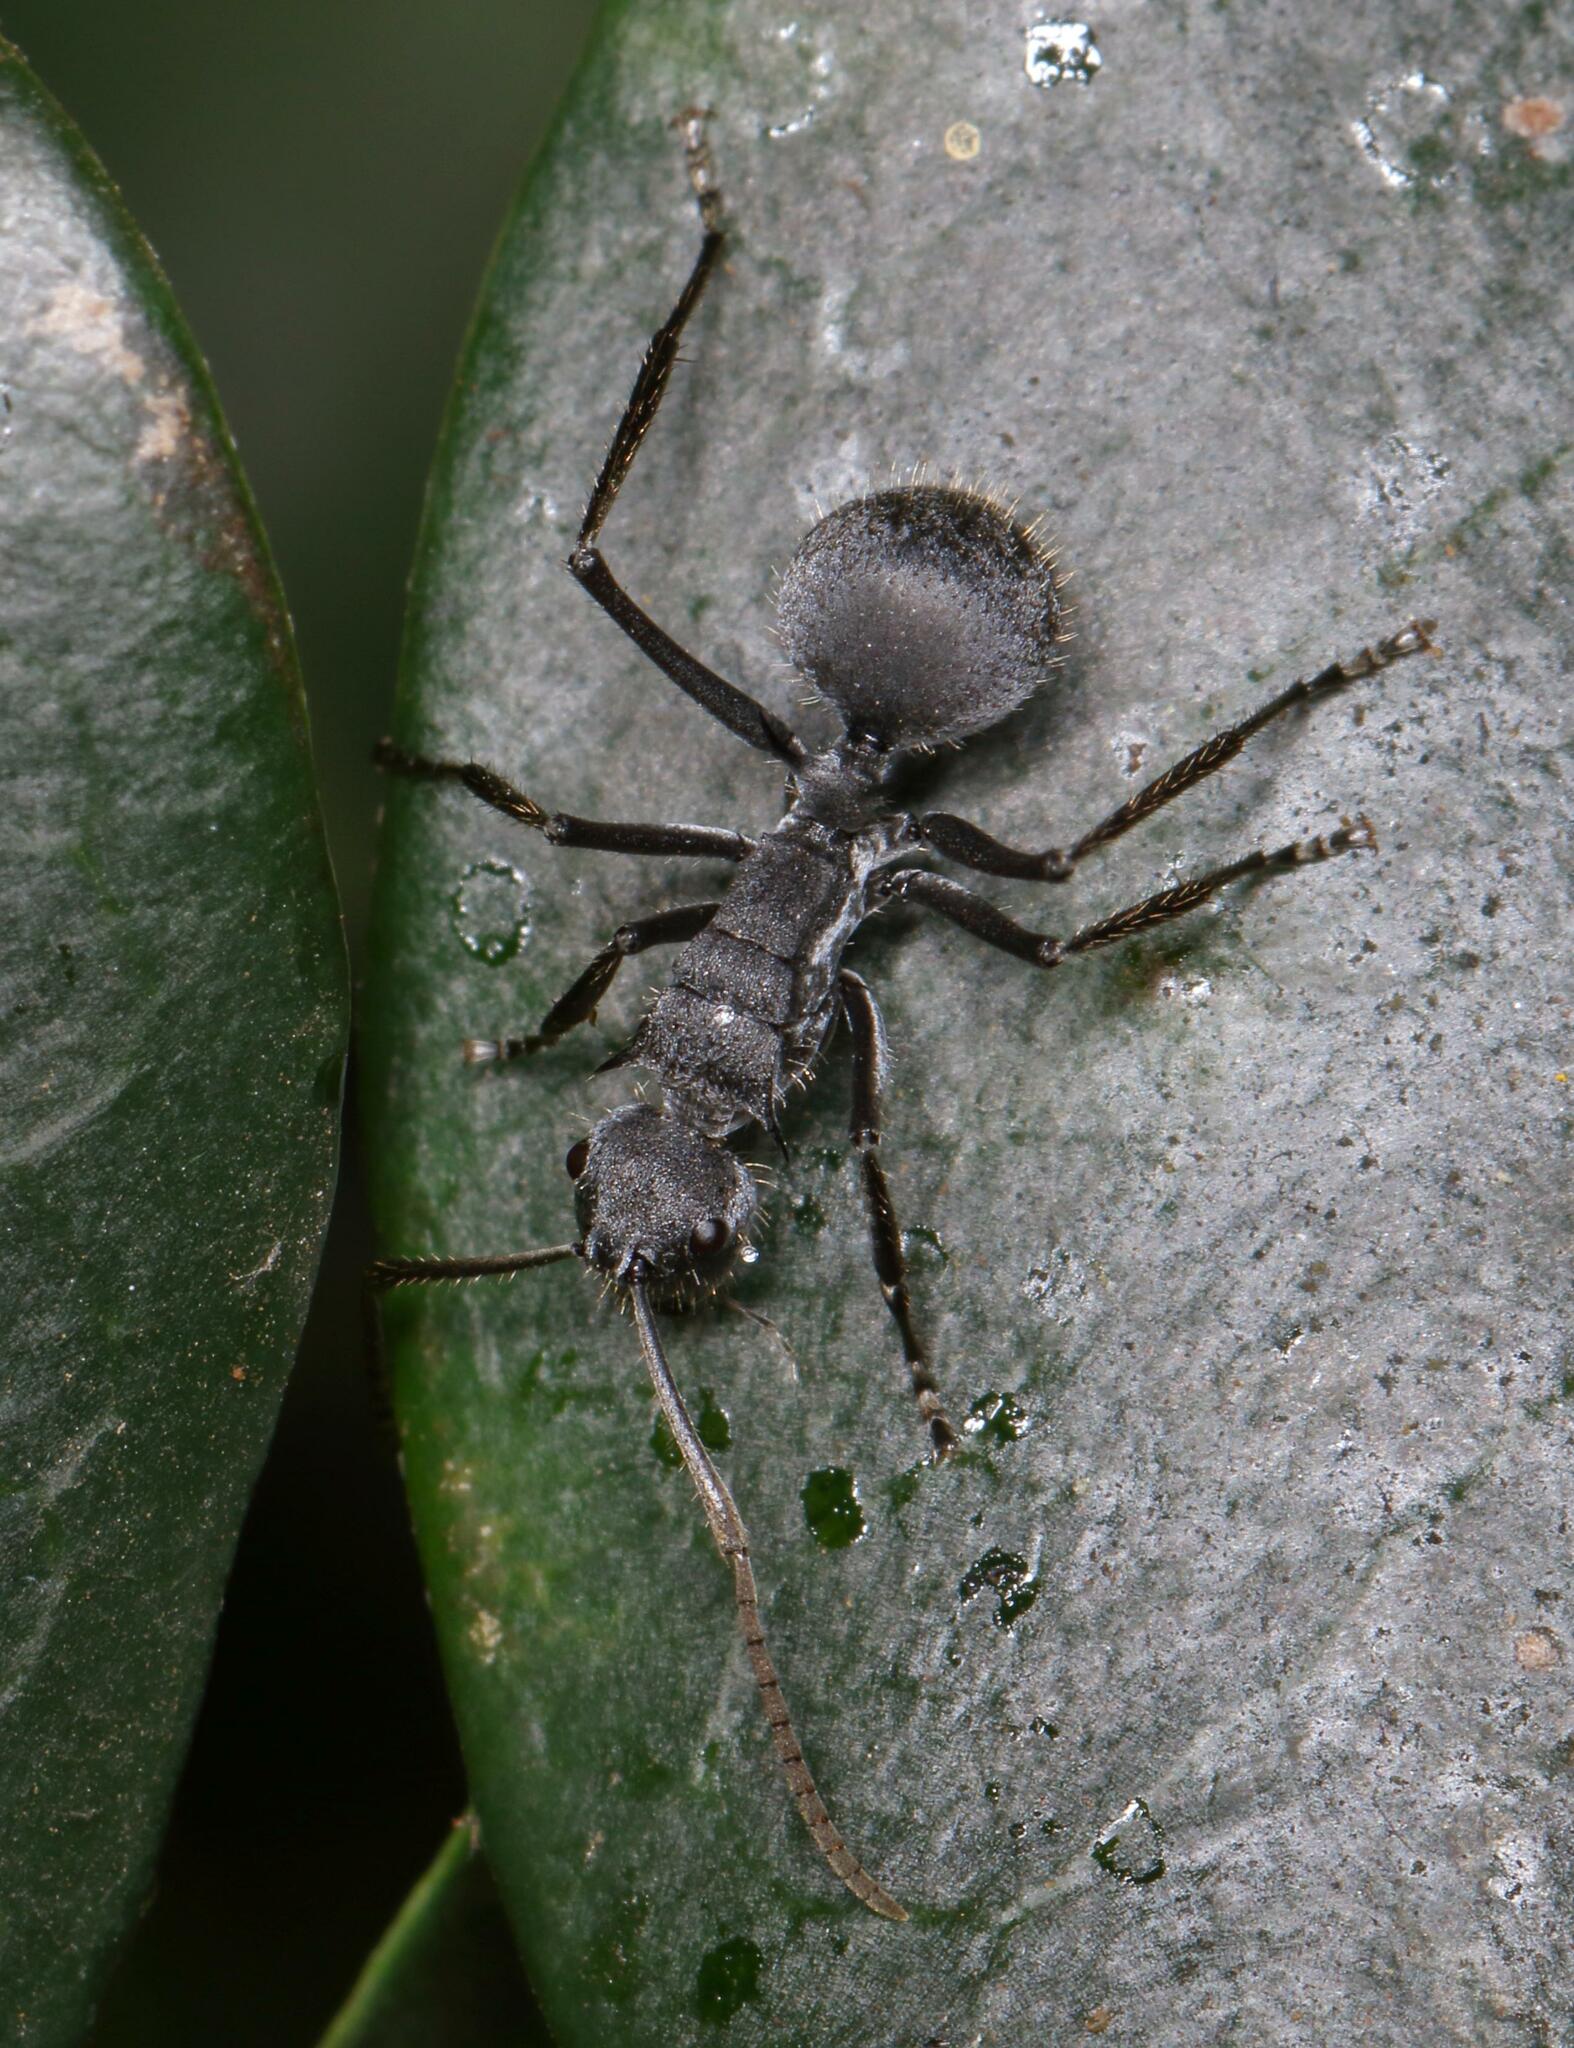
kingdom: Animalia
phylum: Arthropoda
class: Insecta
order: Hymenoptera
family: Formicidae
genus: Polyrhachis
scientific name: Polyrhachis schistacea
